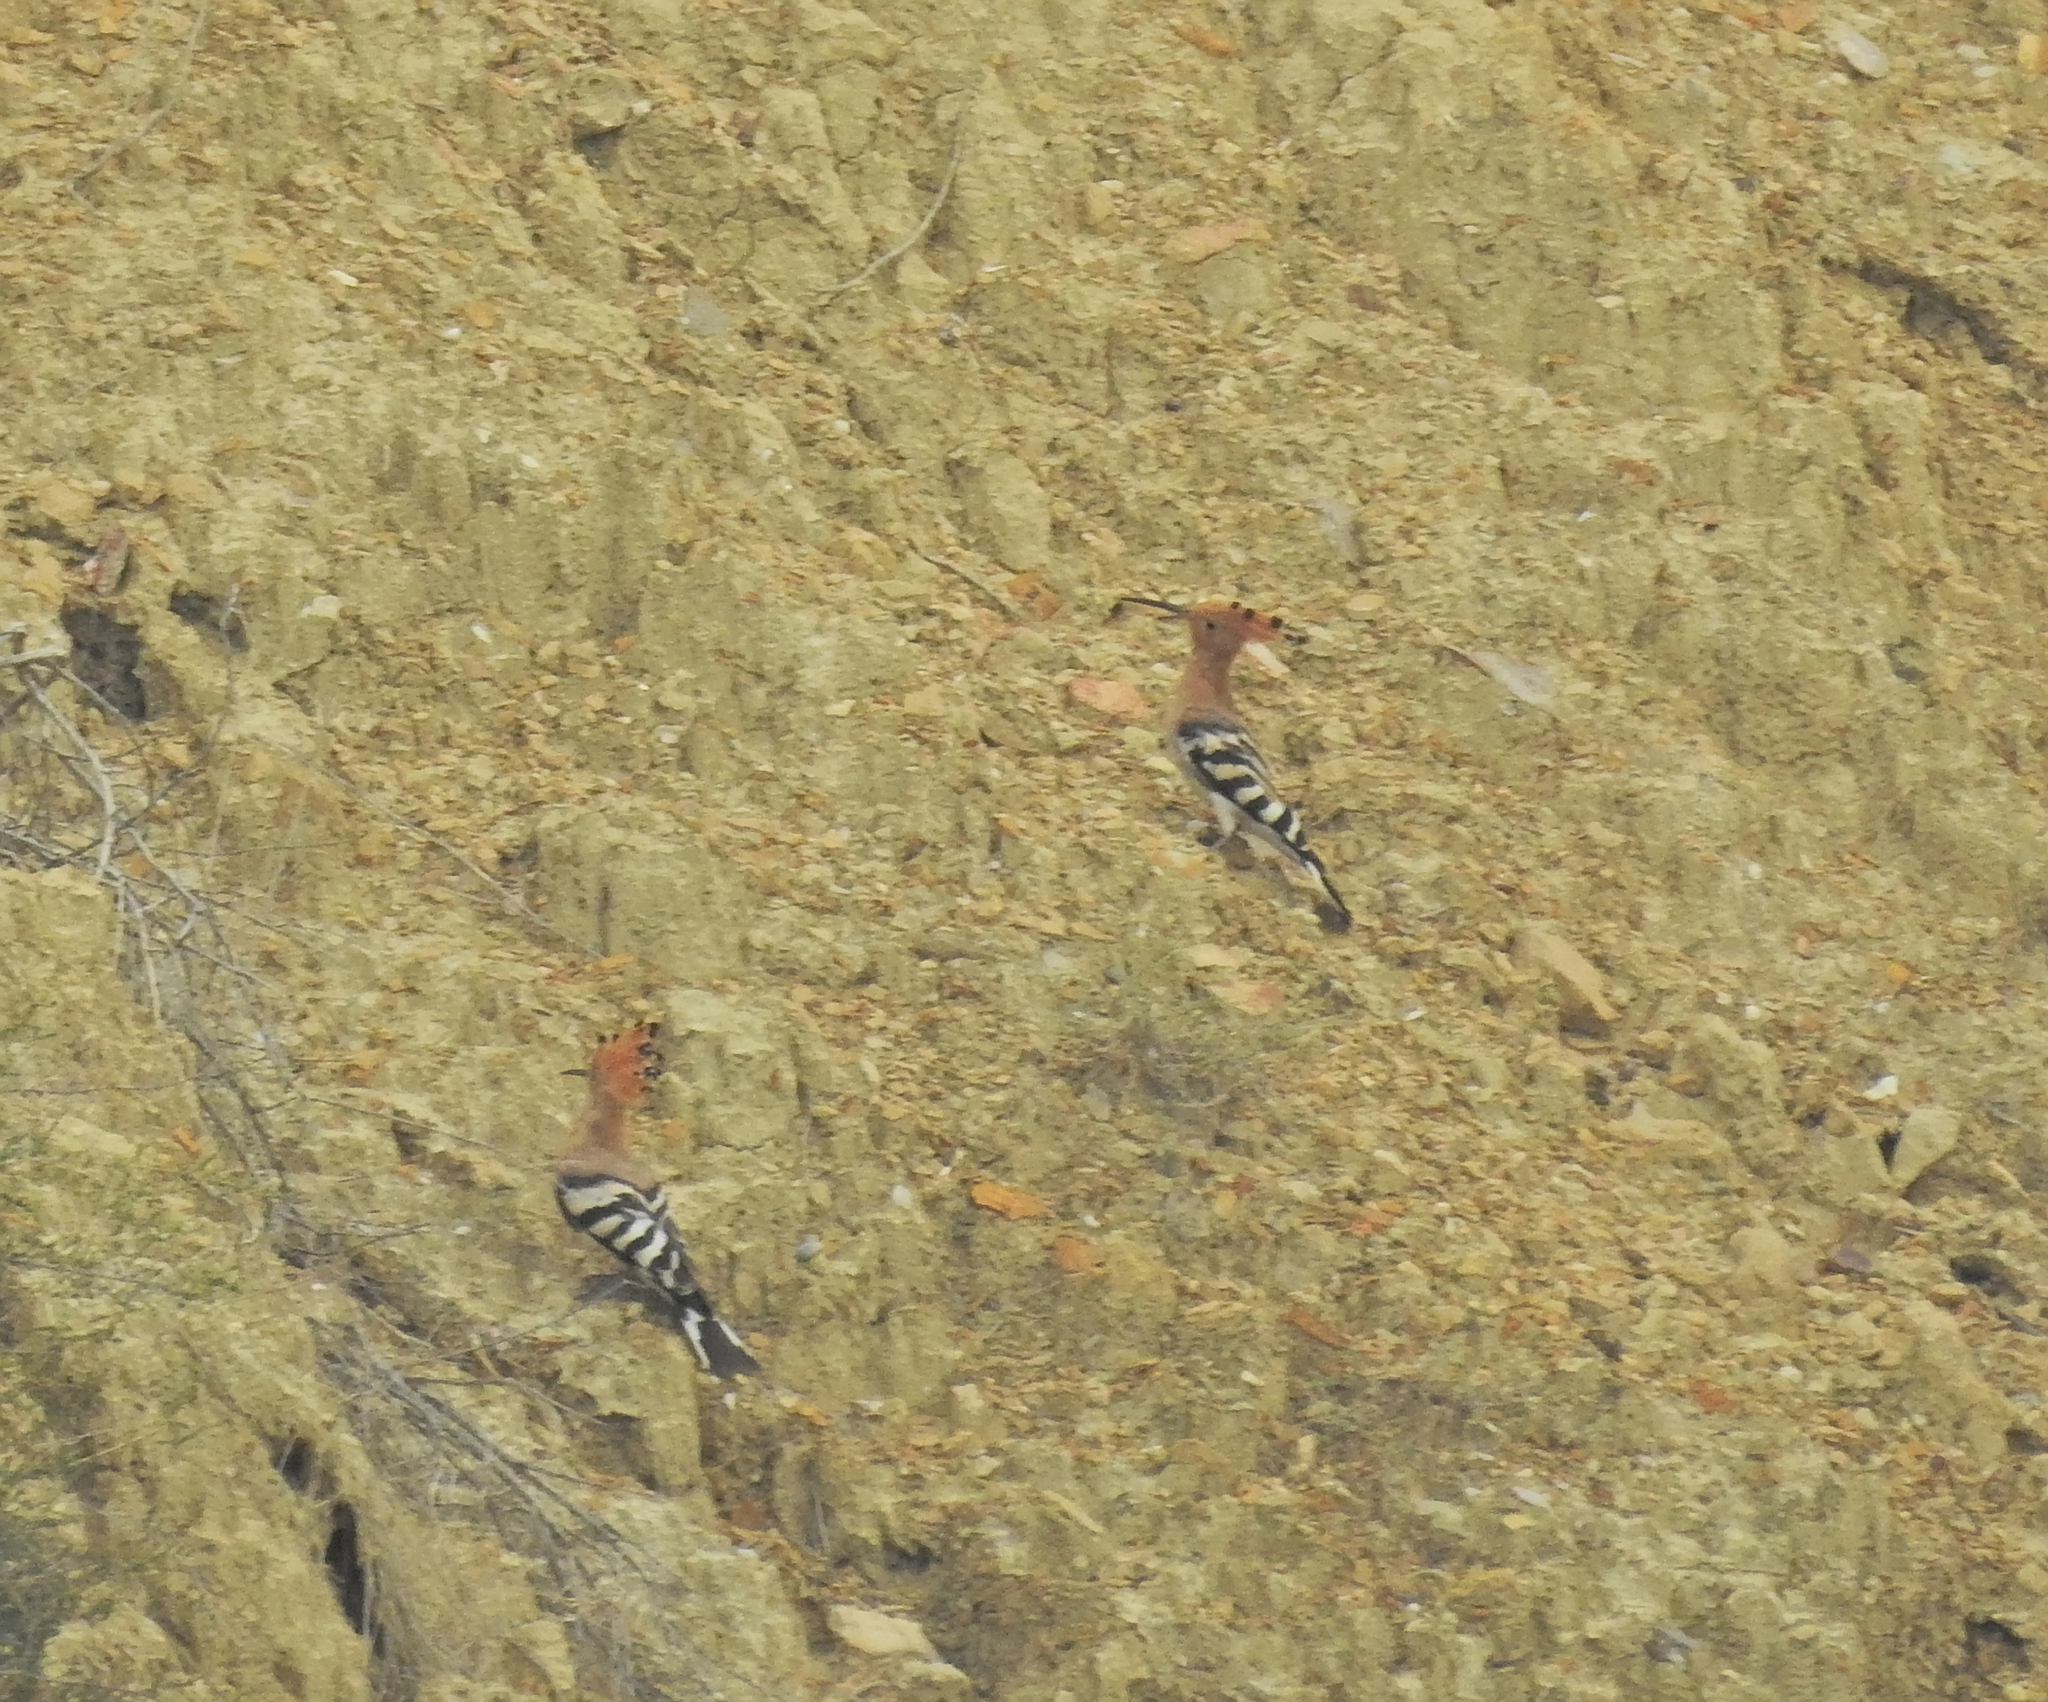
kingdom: Animalia
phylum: Chordata
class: Aves
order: Bucerotiformes
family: Upupidae
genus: Upupa
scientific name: Upupa epops
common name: Eurasian hoopoe
